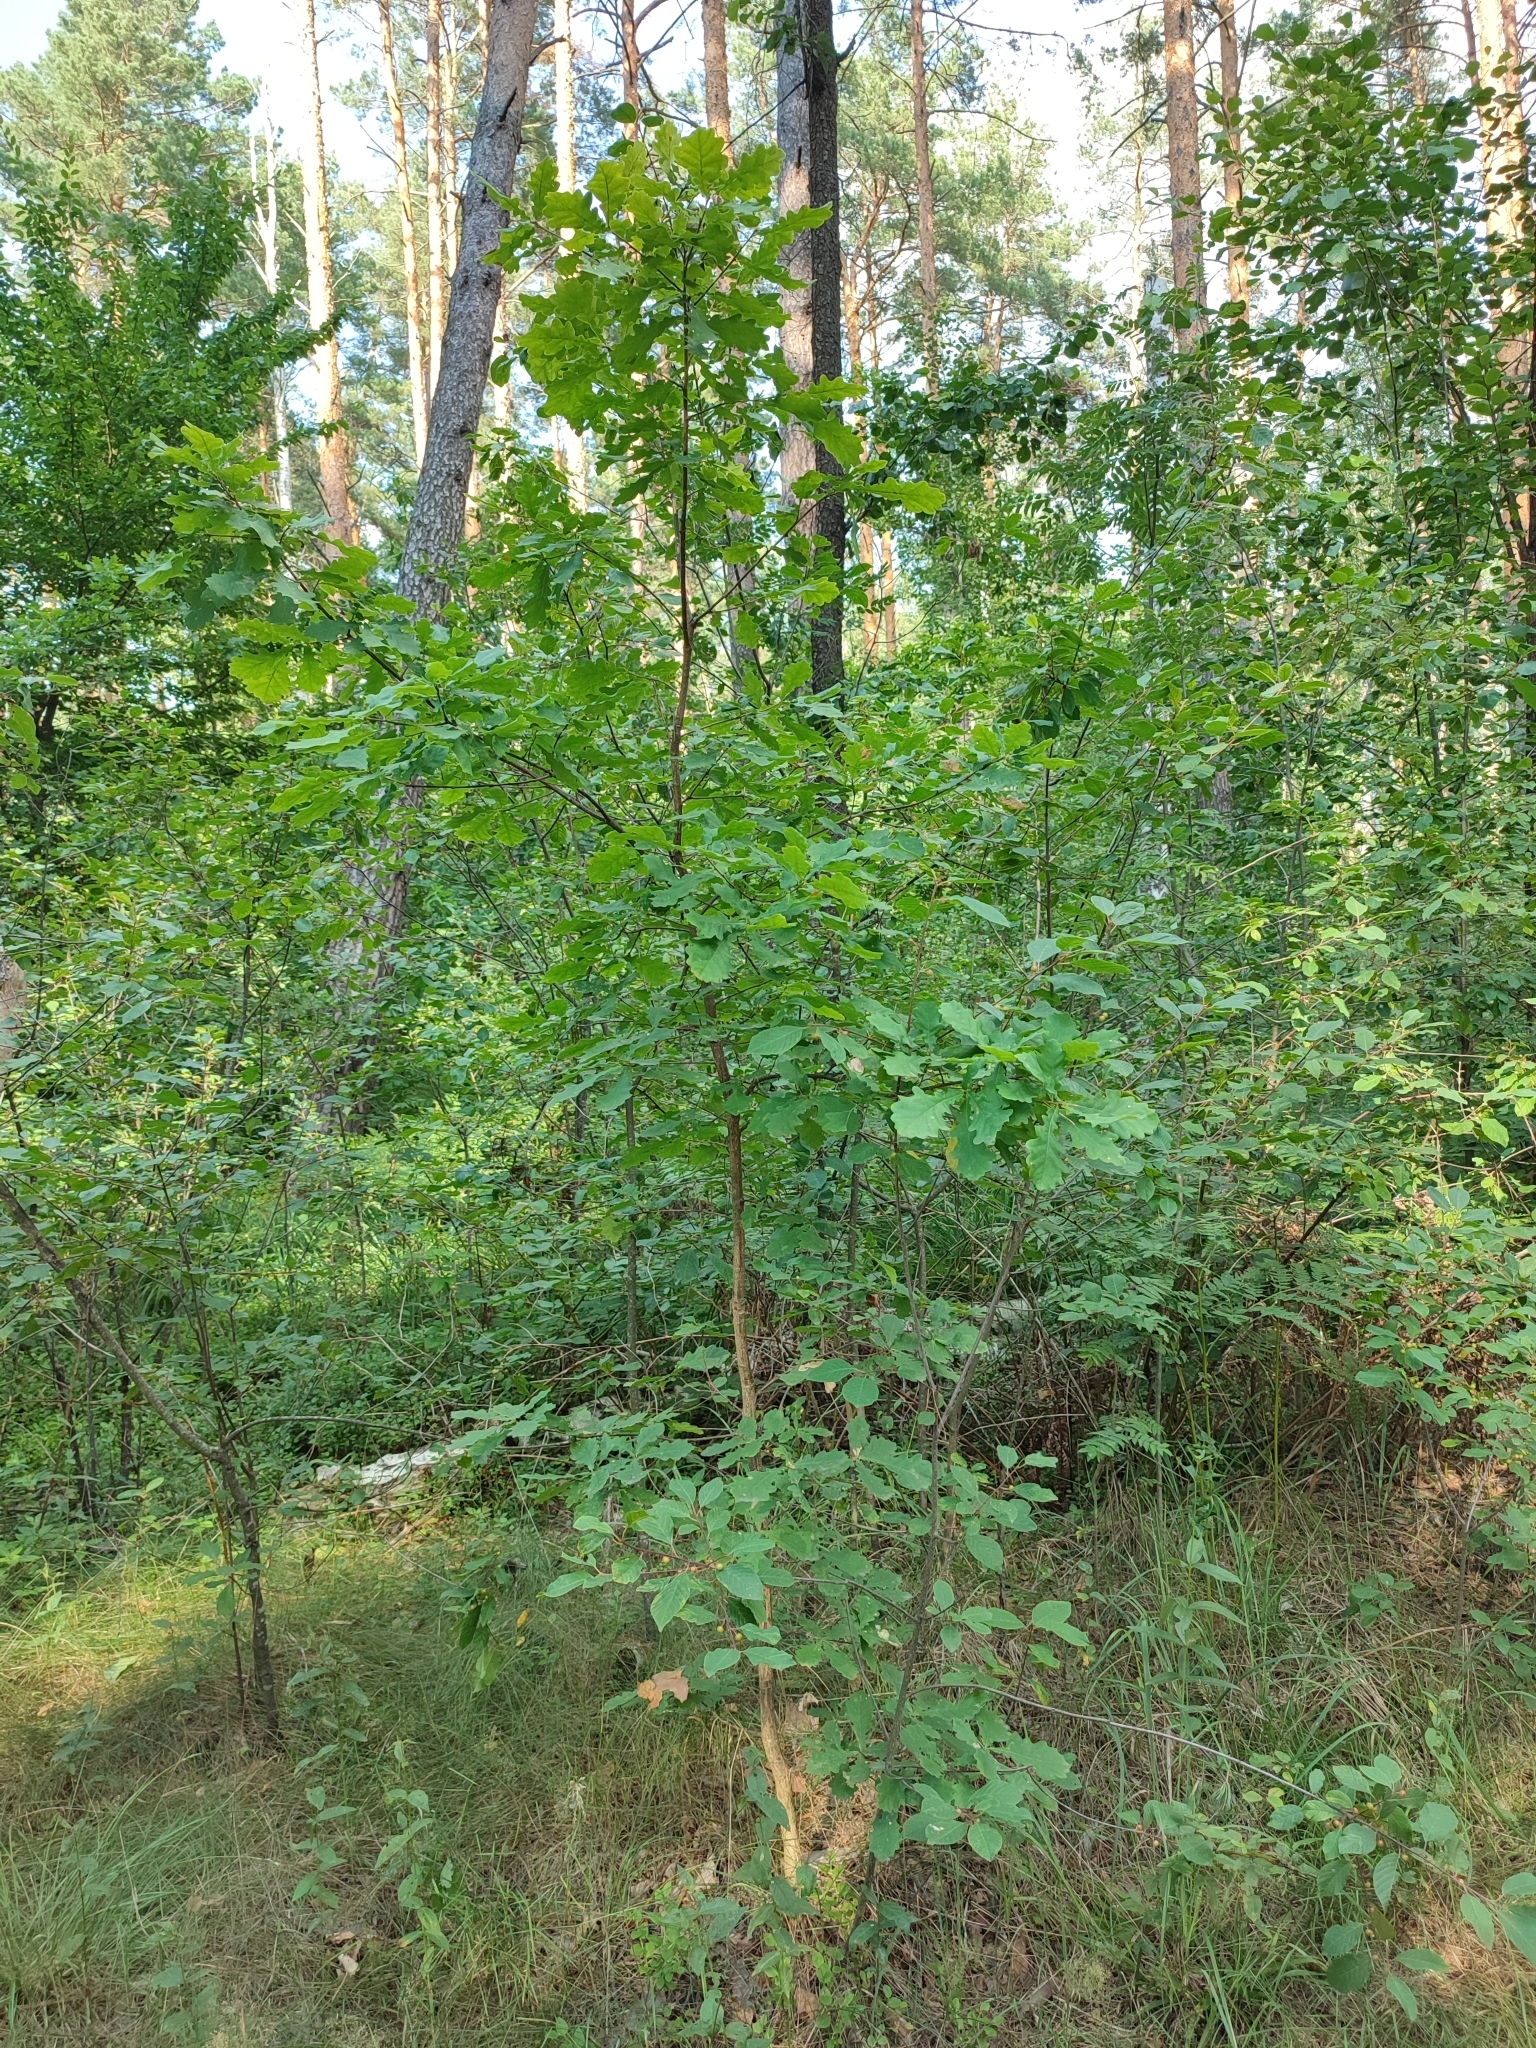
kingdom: Plantae
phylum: Tracheophyta
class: Magnoliopsida
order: Fagales
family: Fagaceae
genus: Quercus
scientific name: Quercus robur
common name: Pedunculate oak
